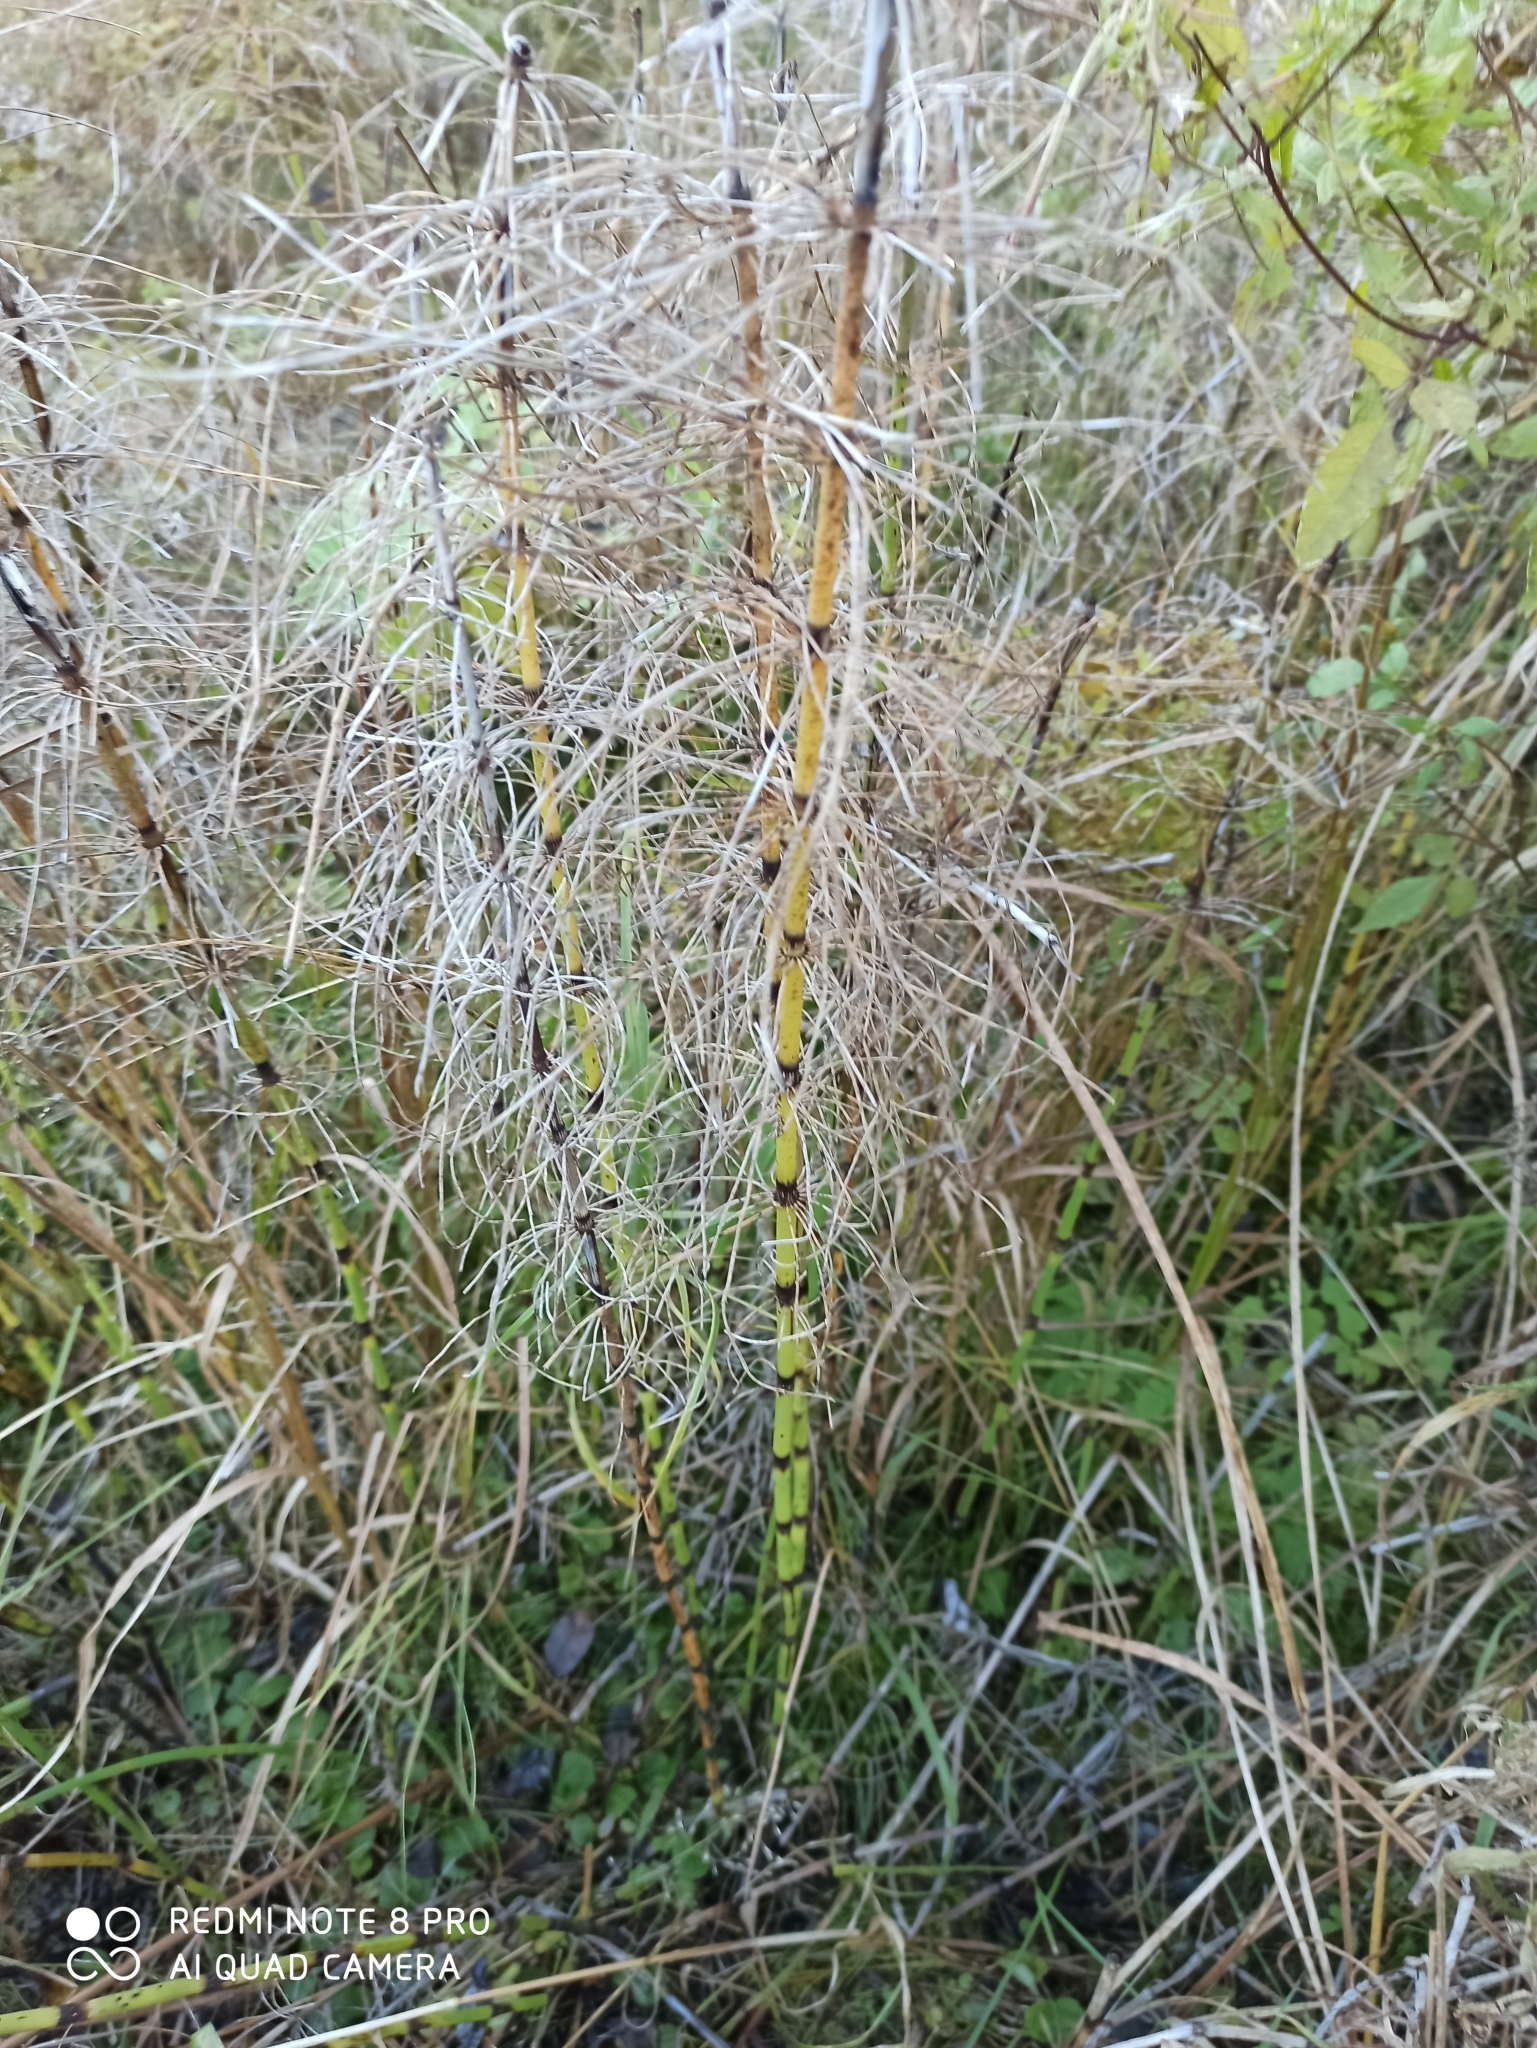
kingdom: Plantae
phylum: Tracheophyta
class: Polypodiopsida
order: Equisetales
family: Equisetaceae
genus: Equisetum
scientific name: Equisetum fluviatile
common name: Water horsetail
